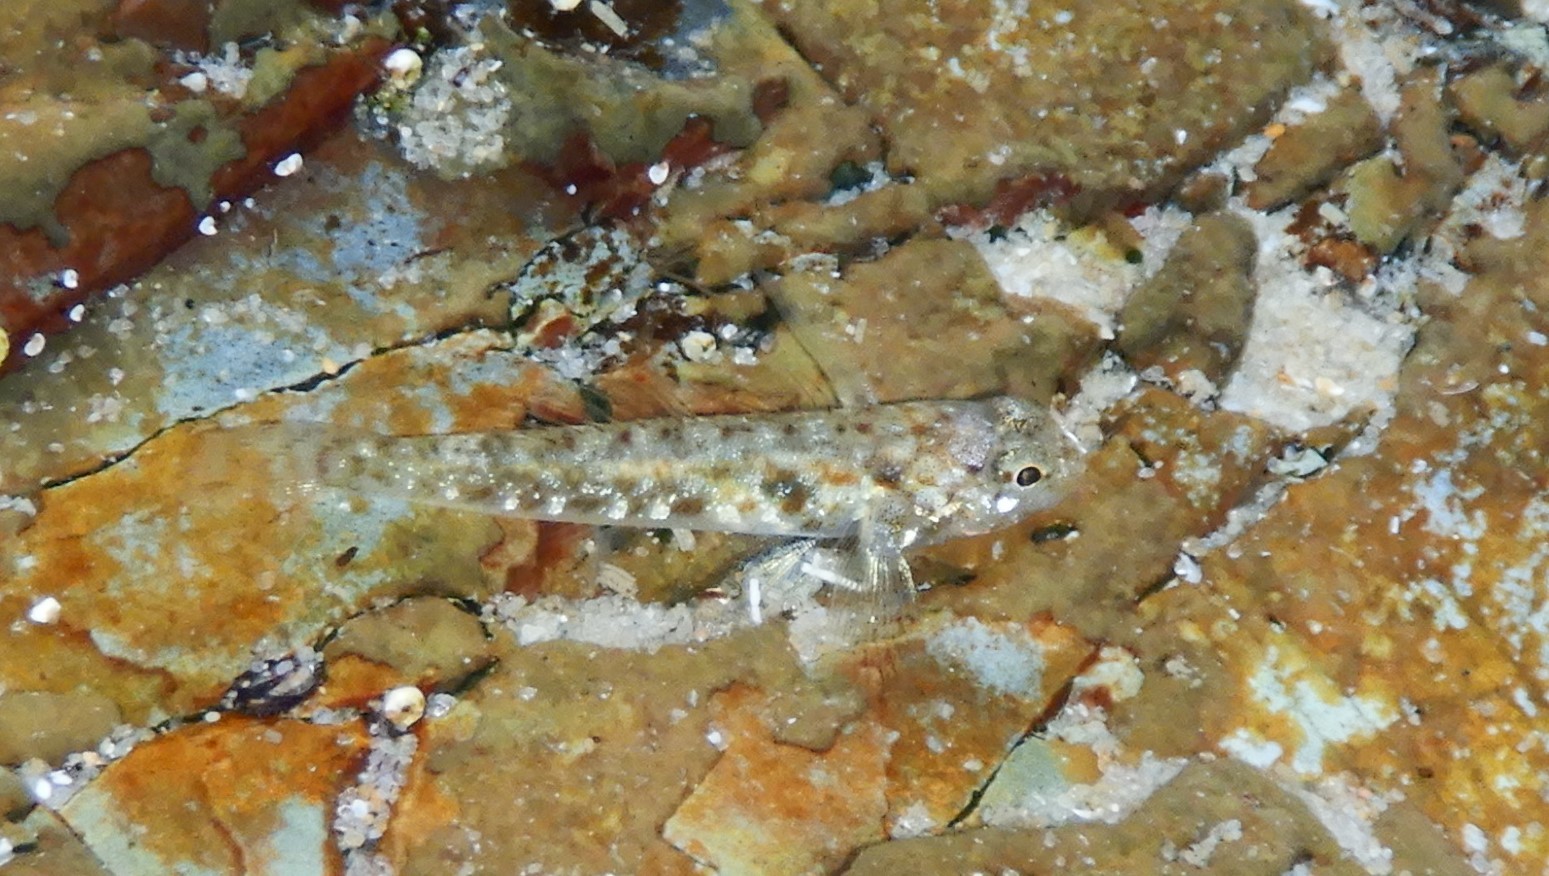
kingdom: Animalia
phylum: Chordata
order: Perciformes
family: Gobiidae
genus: Bathygobius
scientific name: Bathygobius cocosensis
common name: Cocos frillgoby
